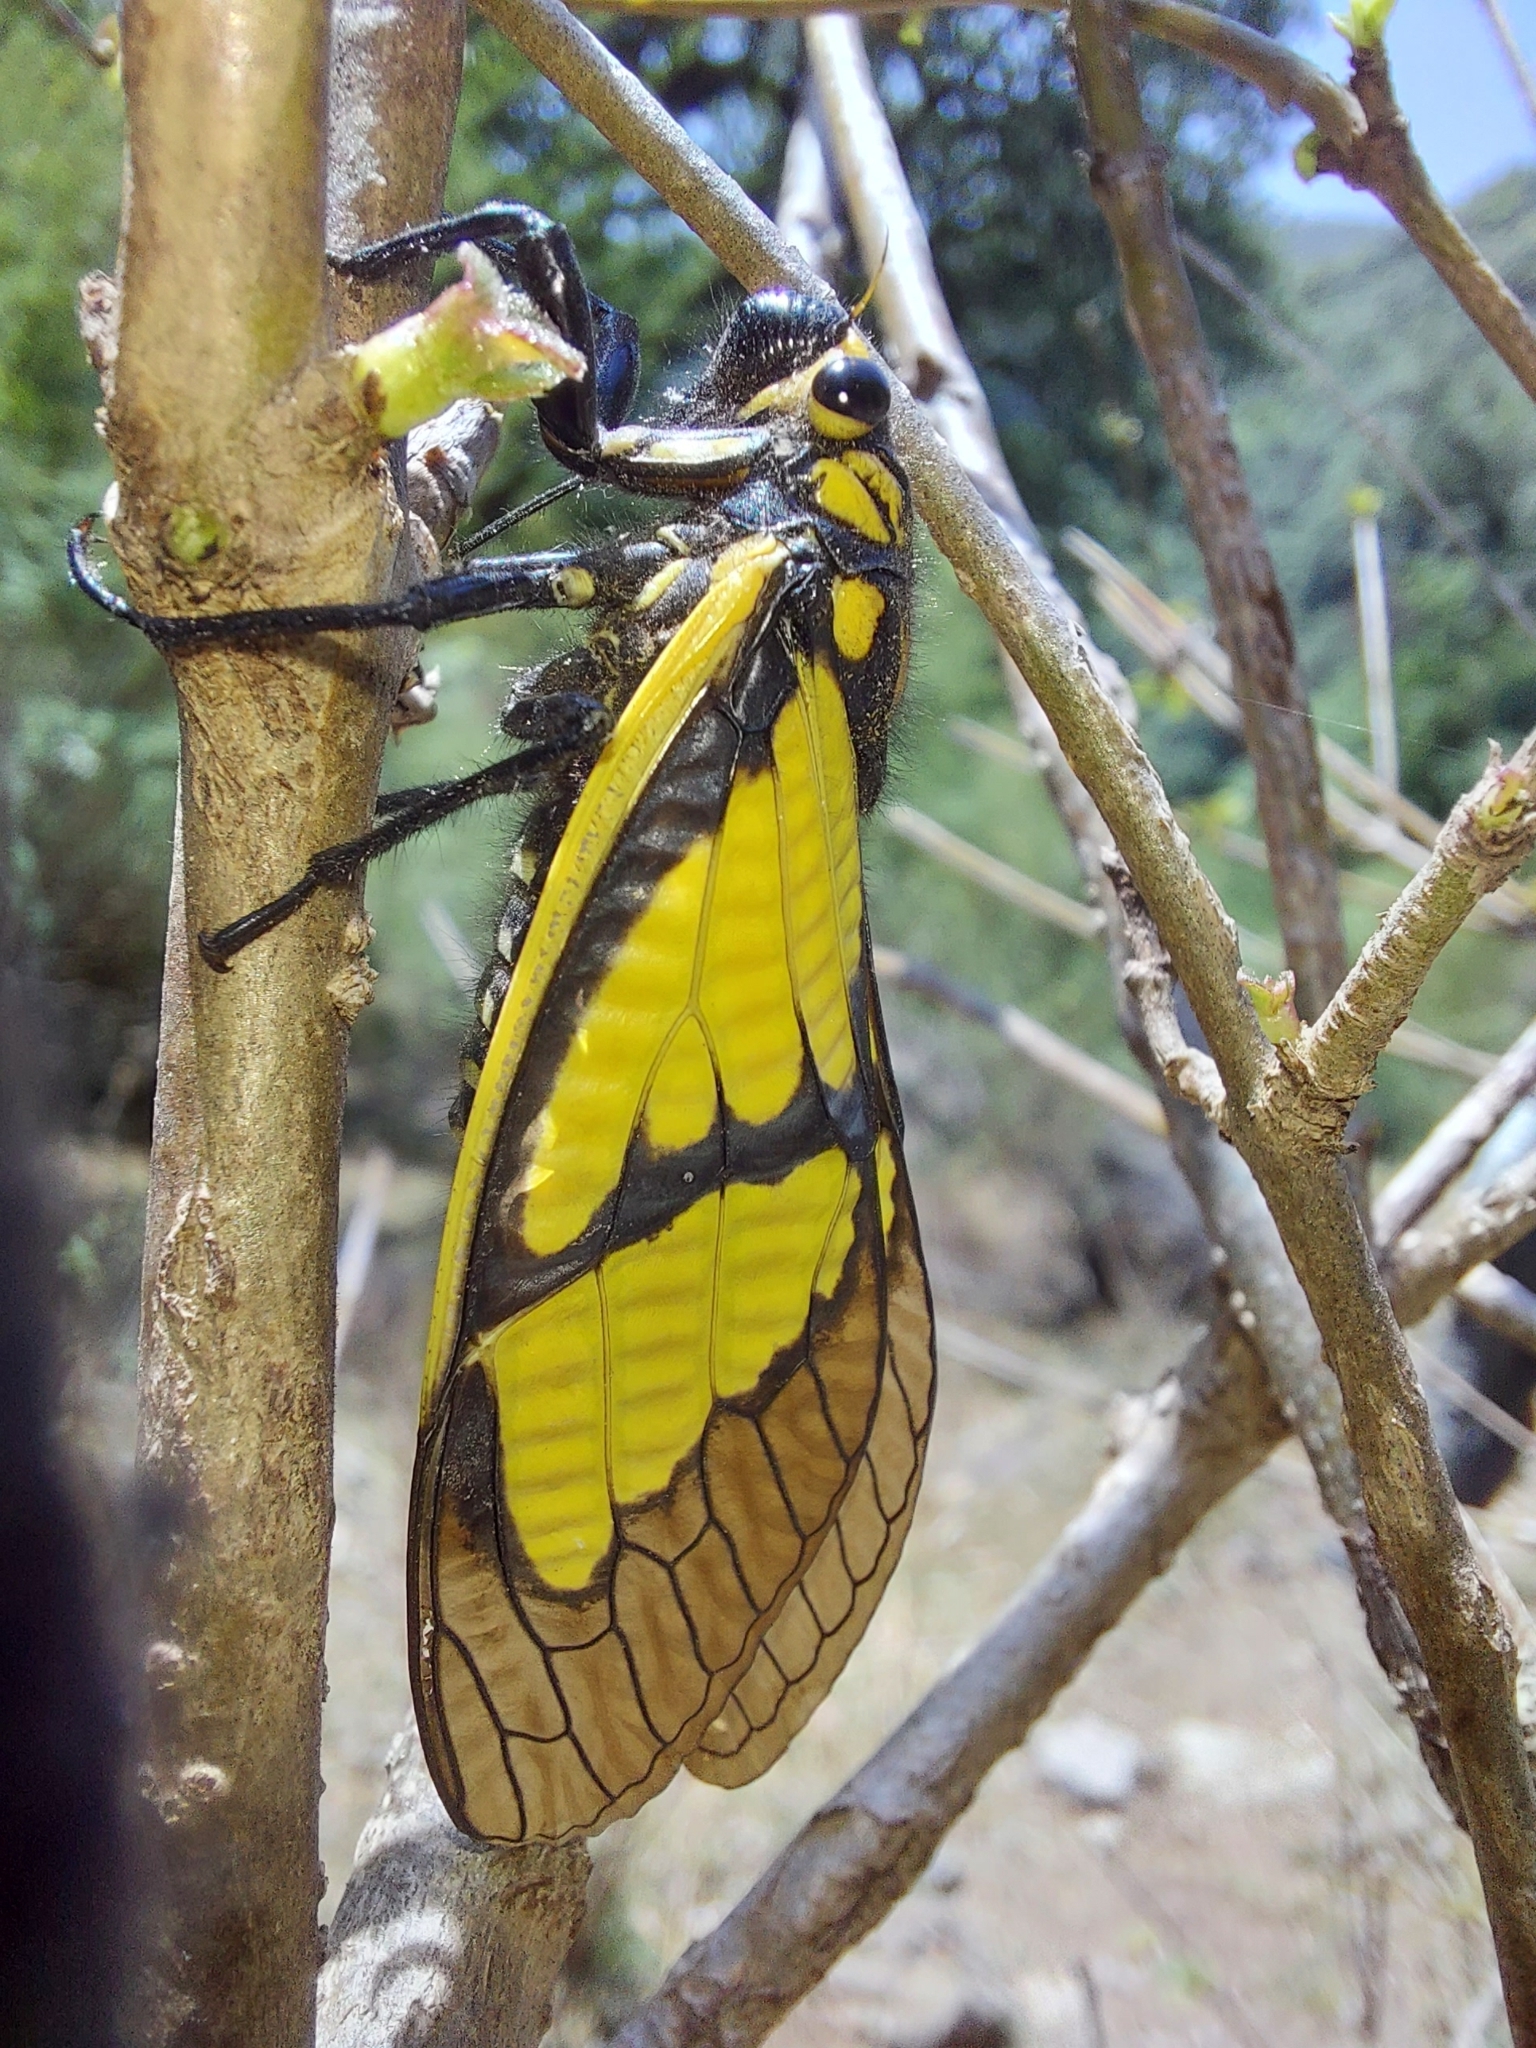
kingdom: Animalia
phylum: Arthropoda
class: Insecta
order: Hemiptera
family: Cicadidae
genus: Sulphogaeana
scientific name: Sulphogaeana sulphurea
